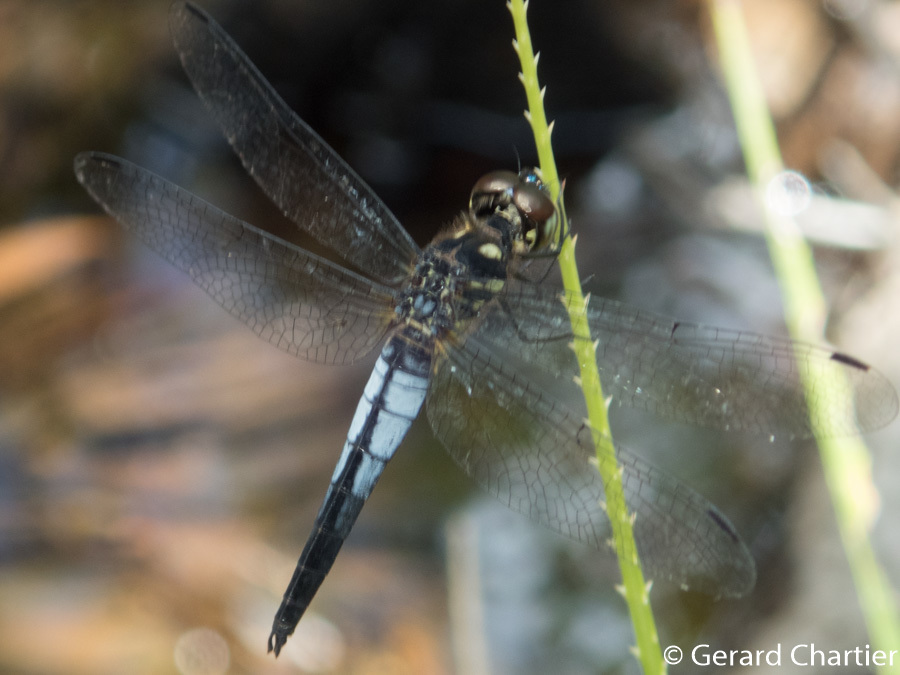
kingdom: Animalia
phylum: Arthropoda
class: Insecta
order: Odonata
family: Libellulidae
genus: Lyriothemis
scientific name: Lyriothemis mortoni
